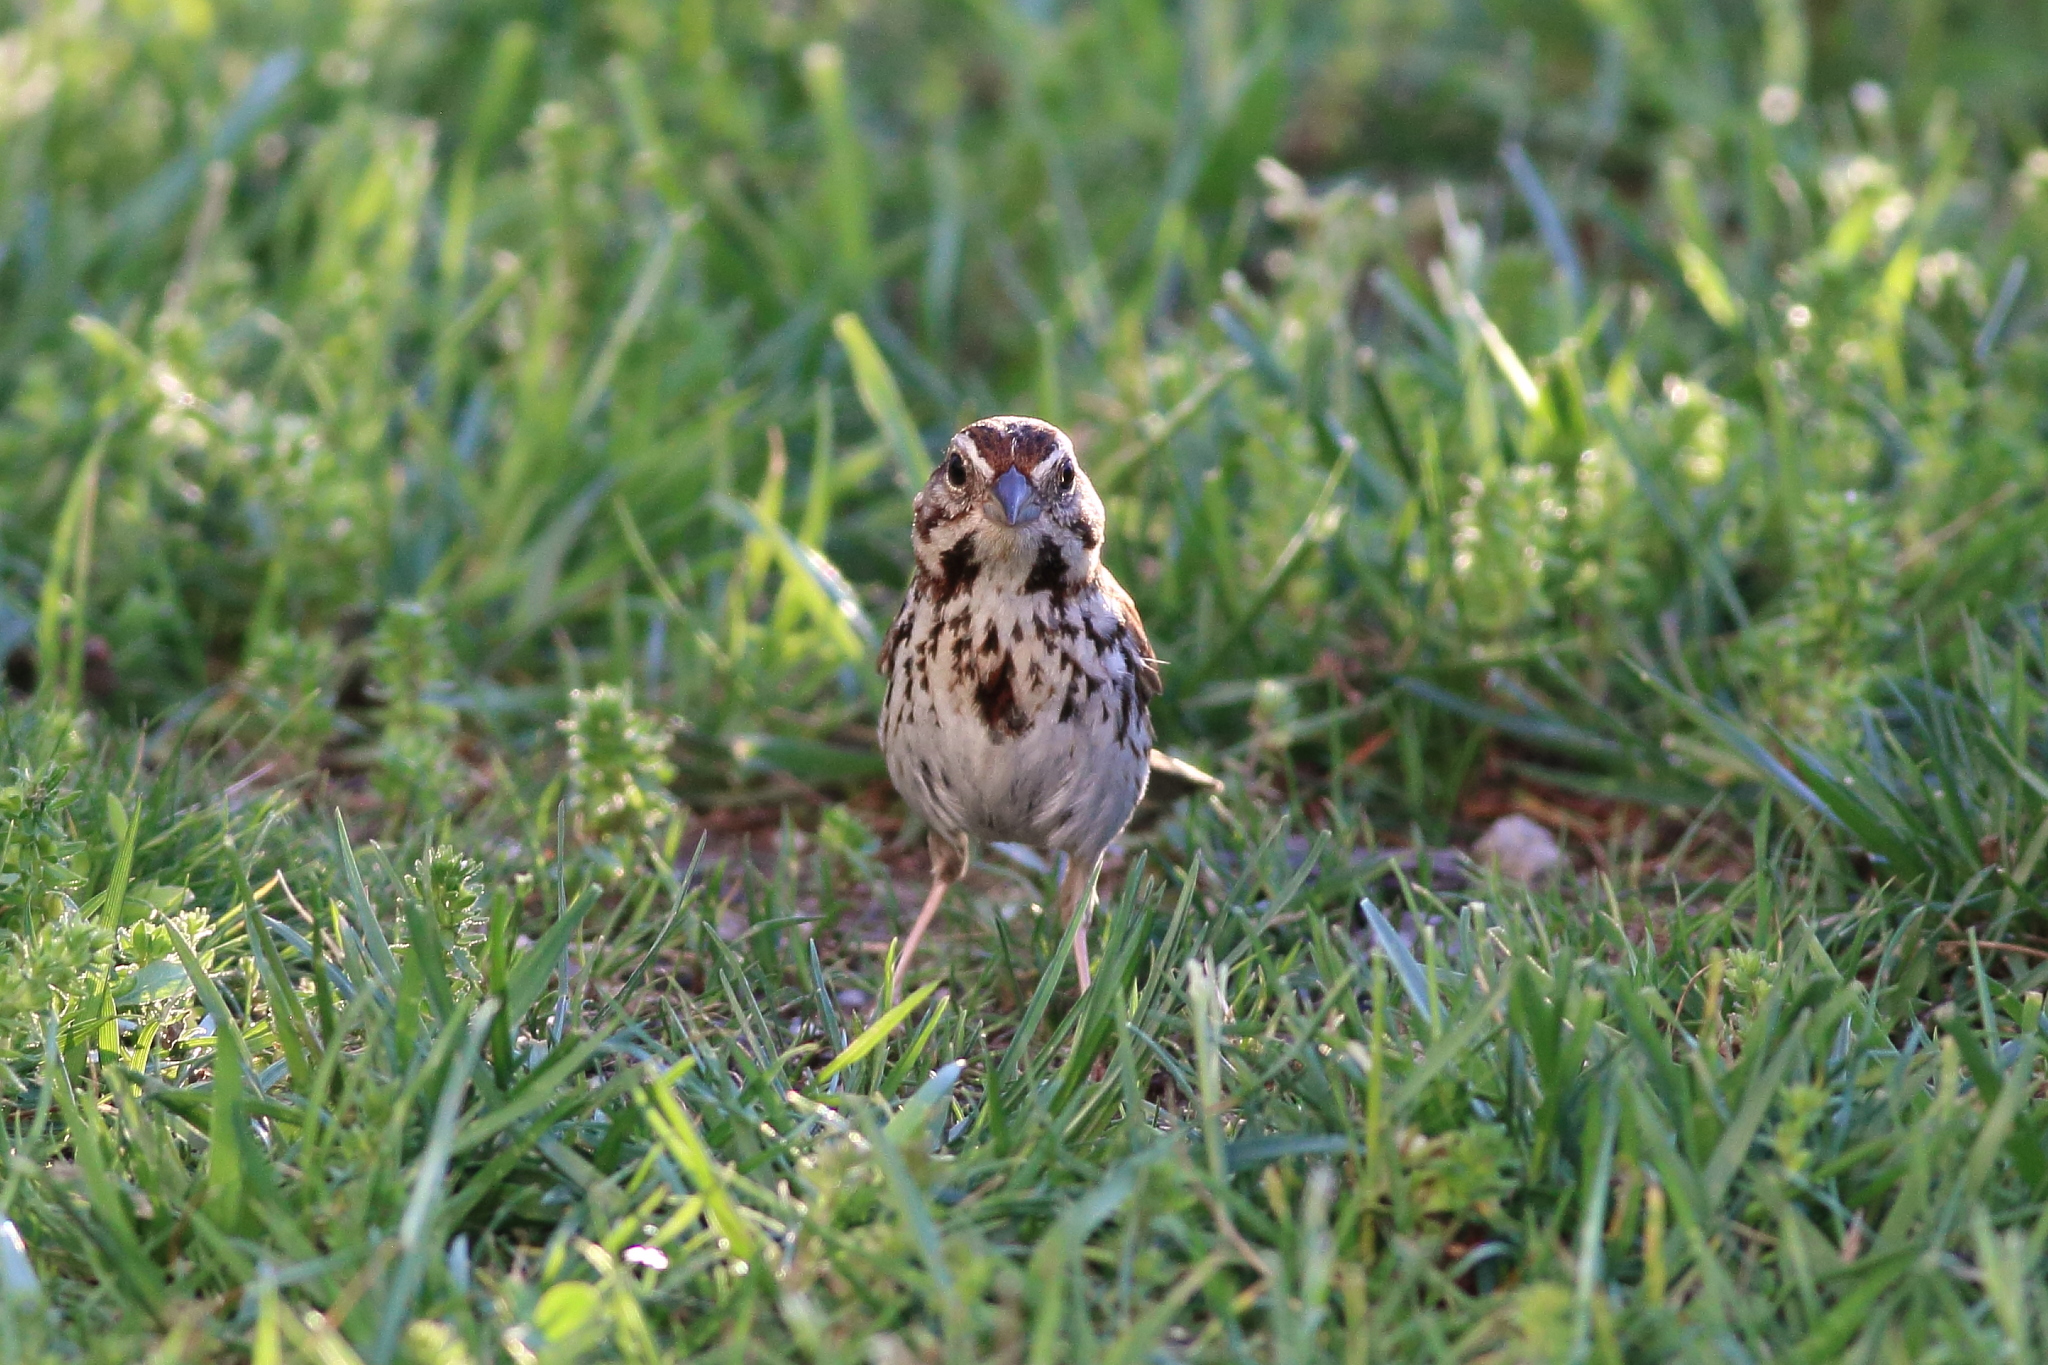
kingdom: Animalia
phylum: Chordata
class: Aves
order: Passeriformes
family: Passerellidae
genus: Melospiza
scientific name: Melospiza melodia
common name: Song sparrow
